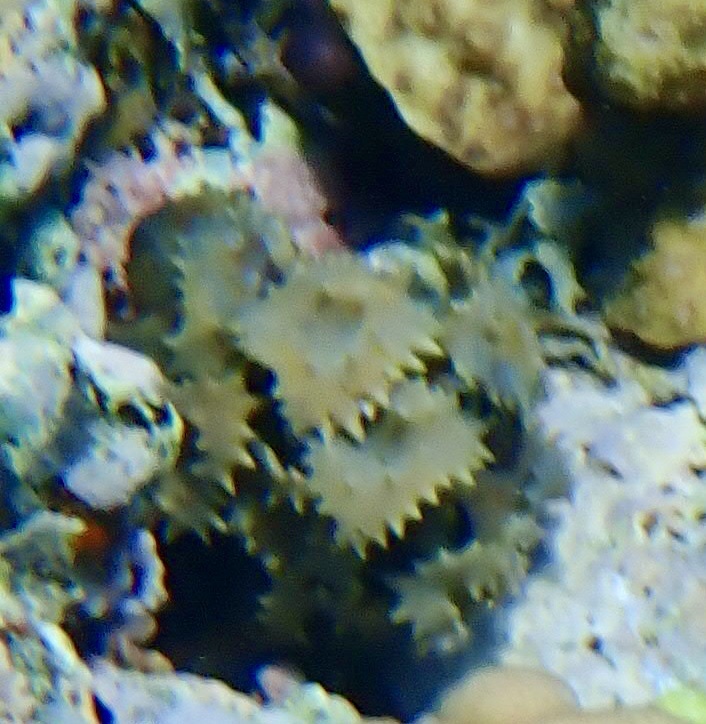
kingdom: Chromista
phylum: Ochrophyta
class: Phaeophyceae
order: Fucales
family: Sargassaceae
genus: Turbinaria
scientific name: Turbinaria ornata
